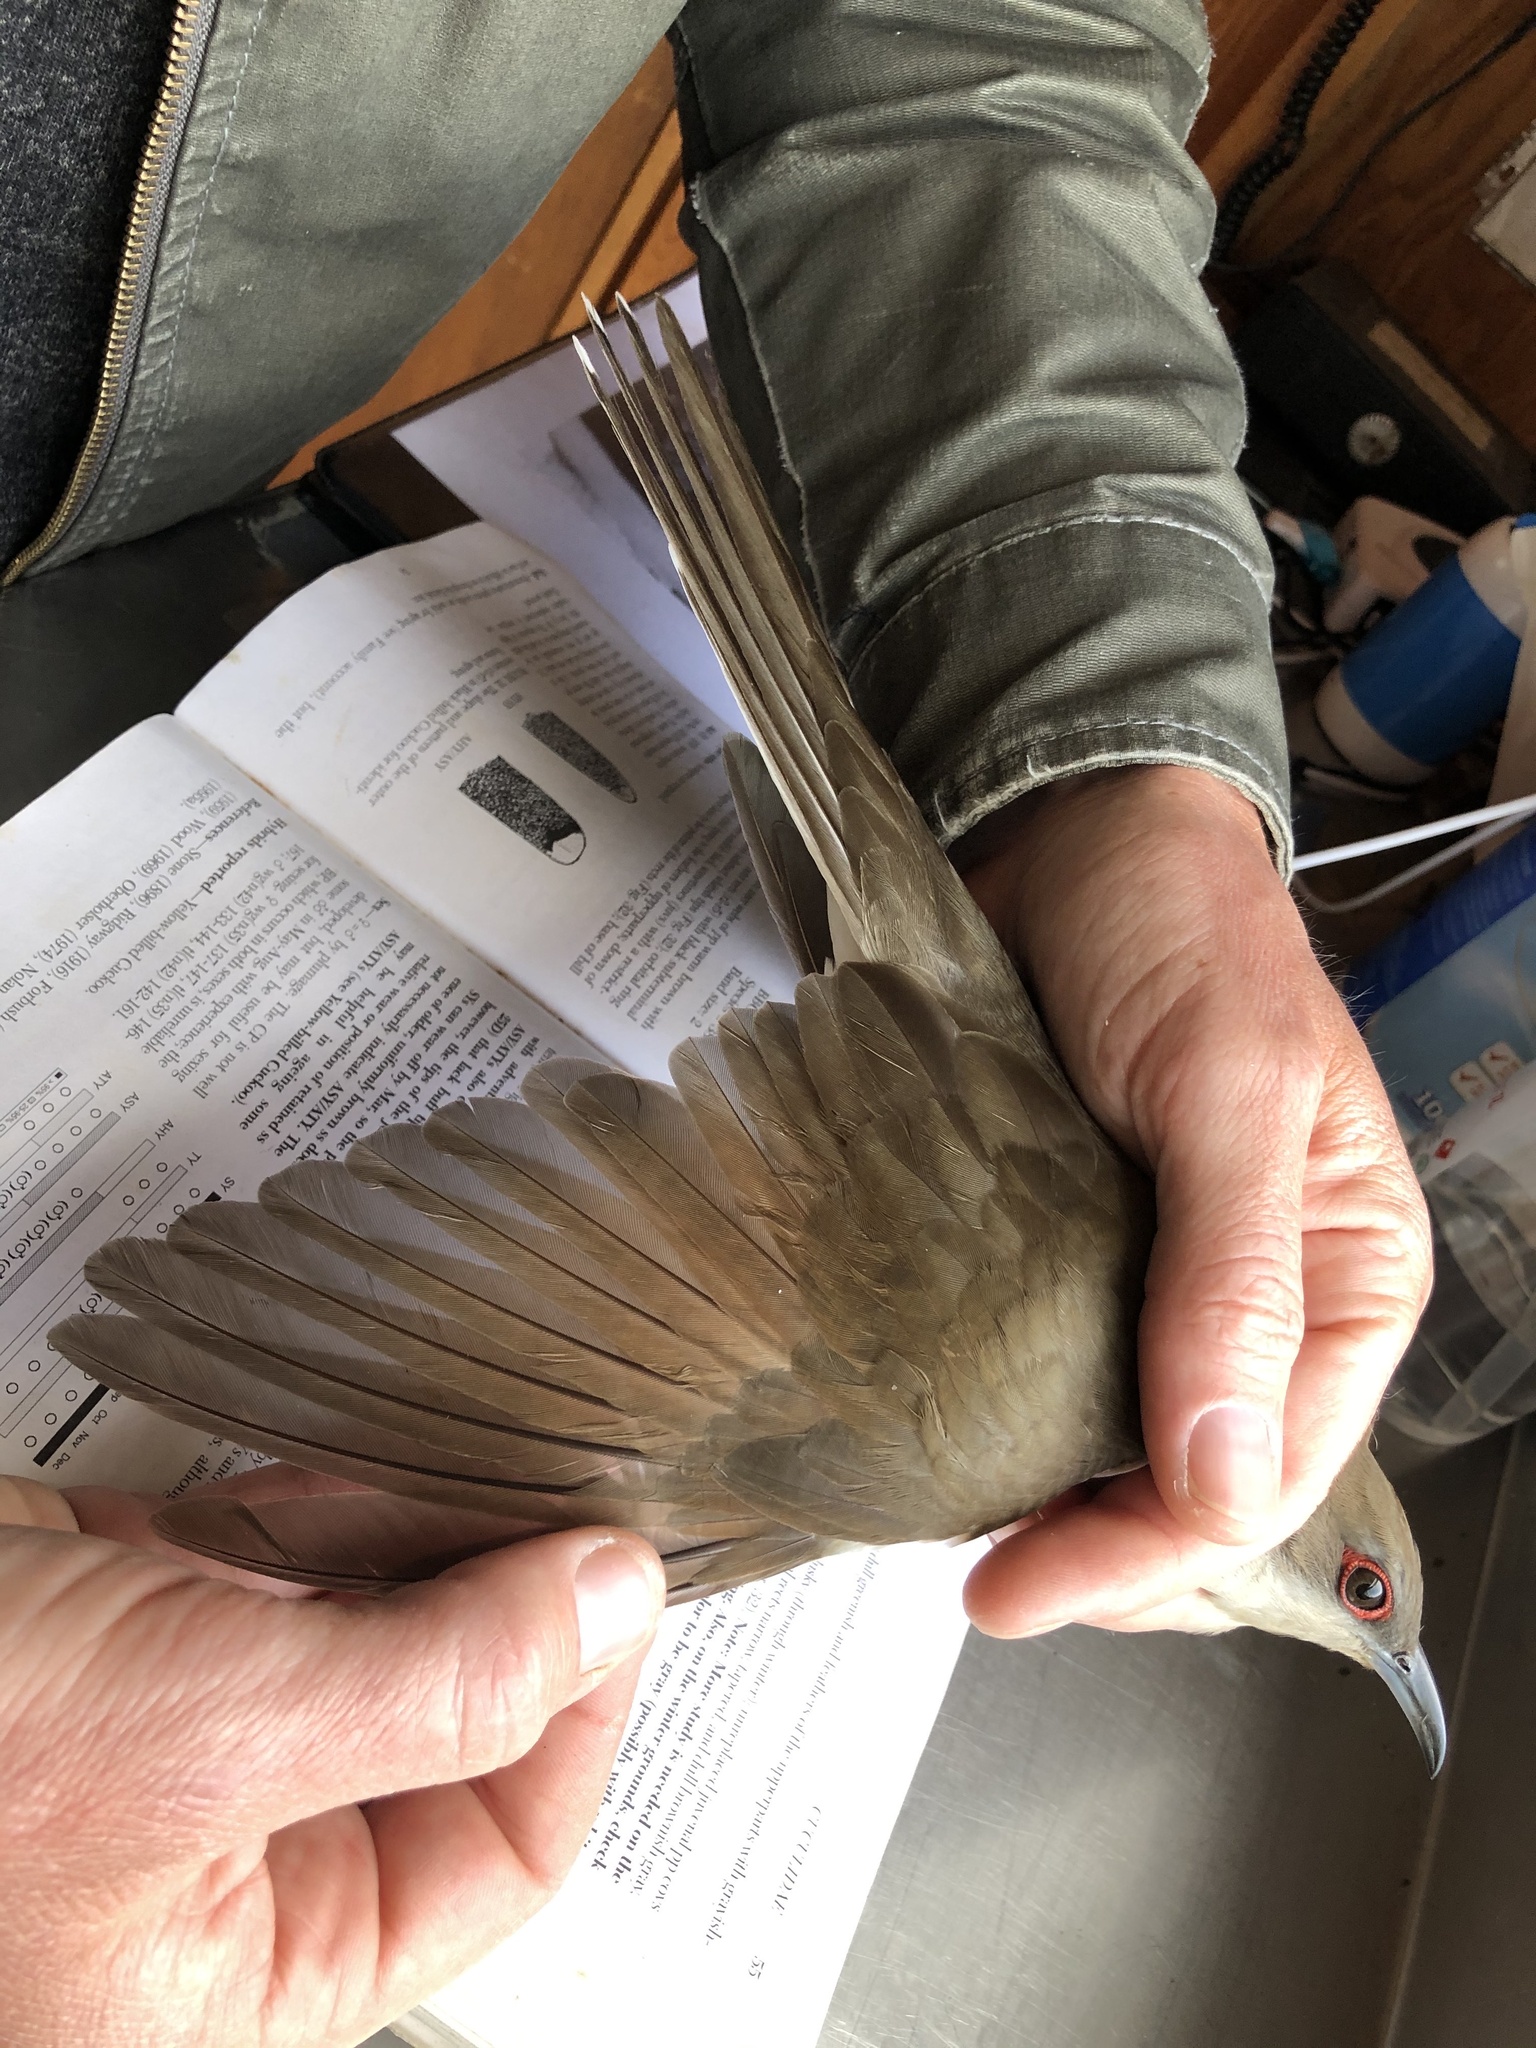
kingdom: Animalia
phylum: Chordata
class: Aves
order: Cuculiformes
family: Cuculidae
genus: Coccyzus
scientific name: Coccyzus erythropthalmus
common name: Black-billed cuckoo
